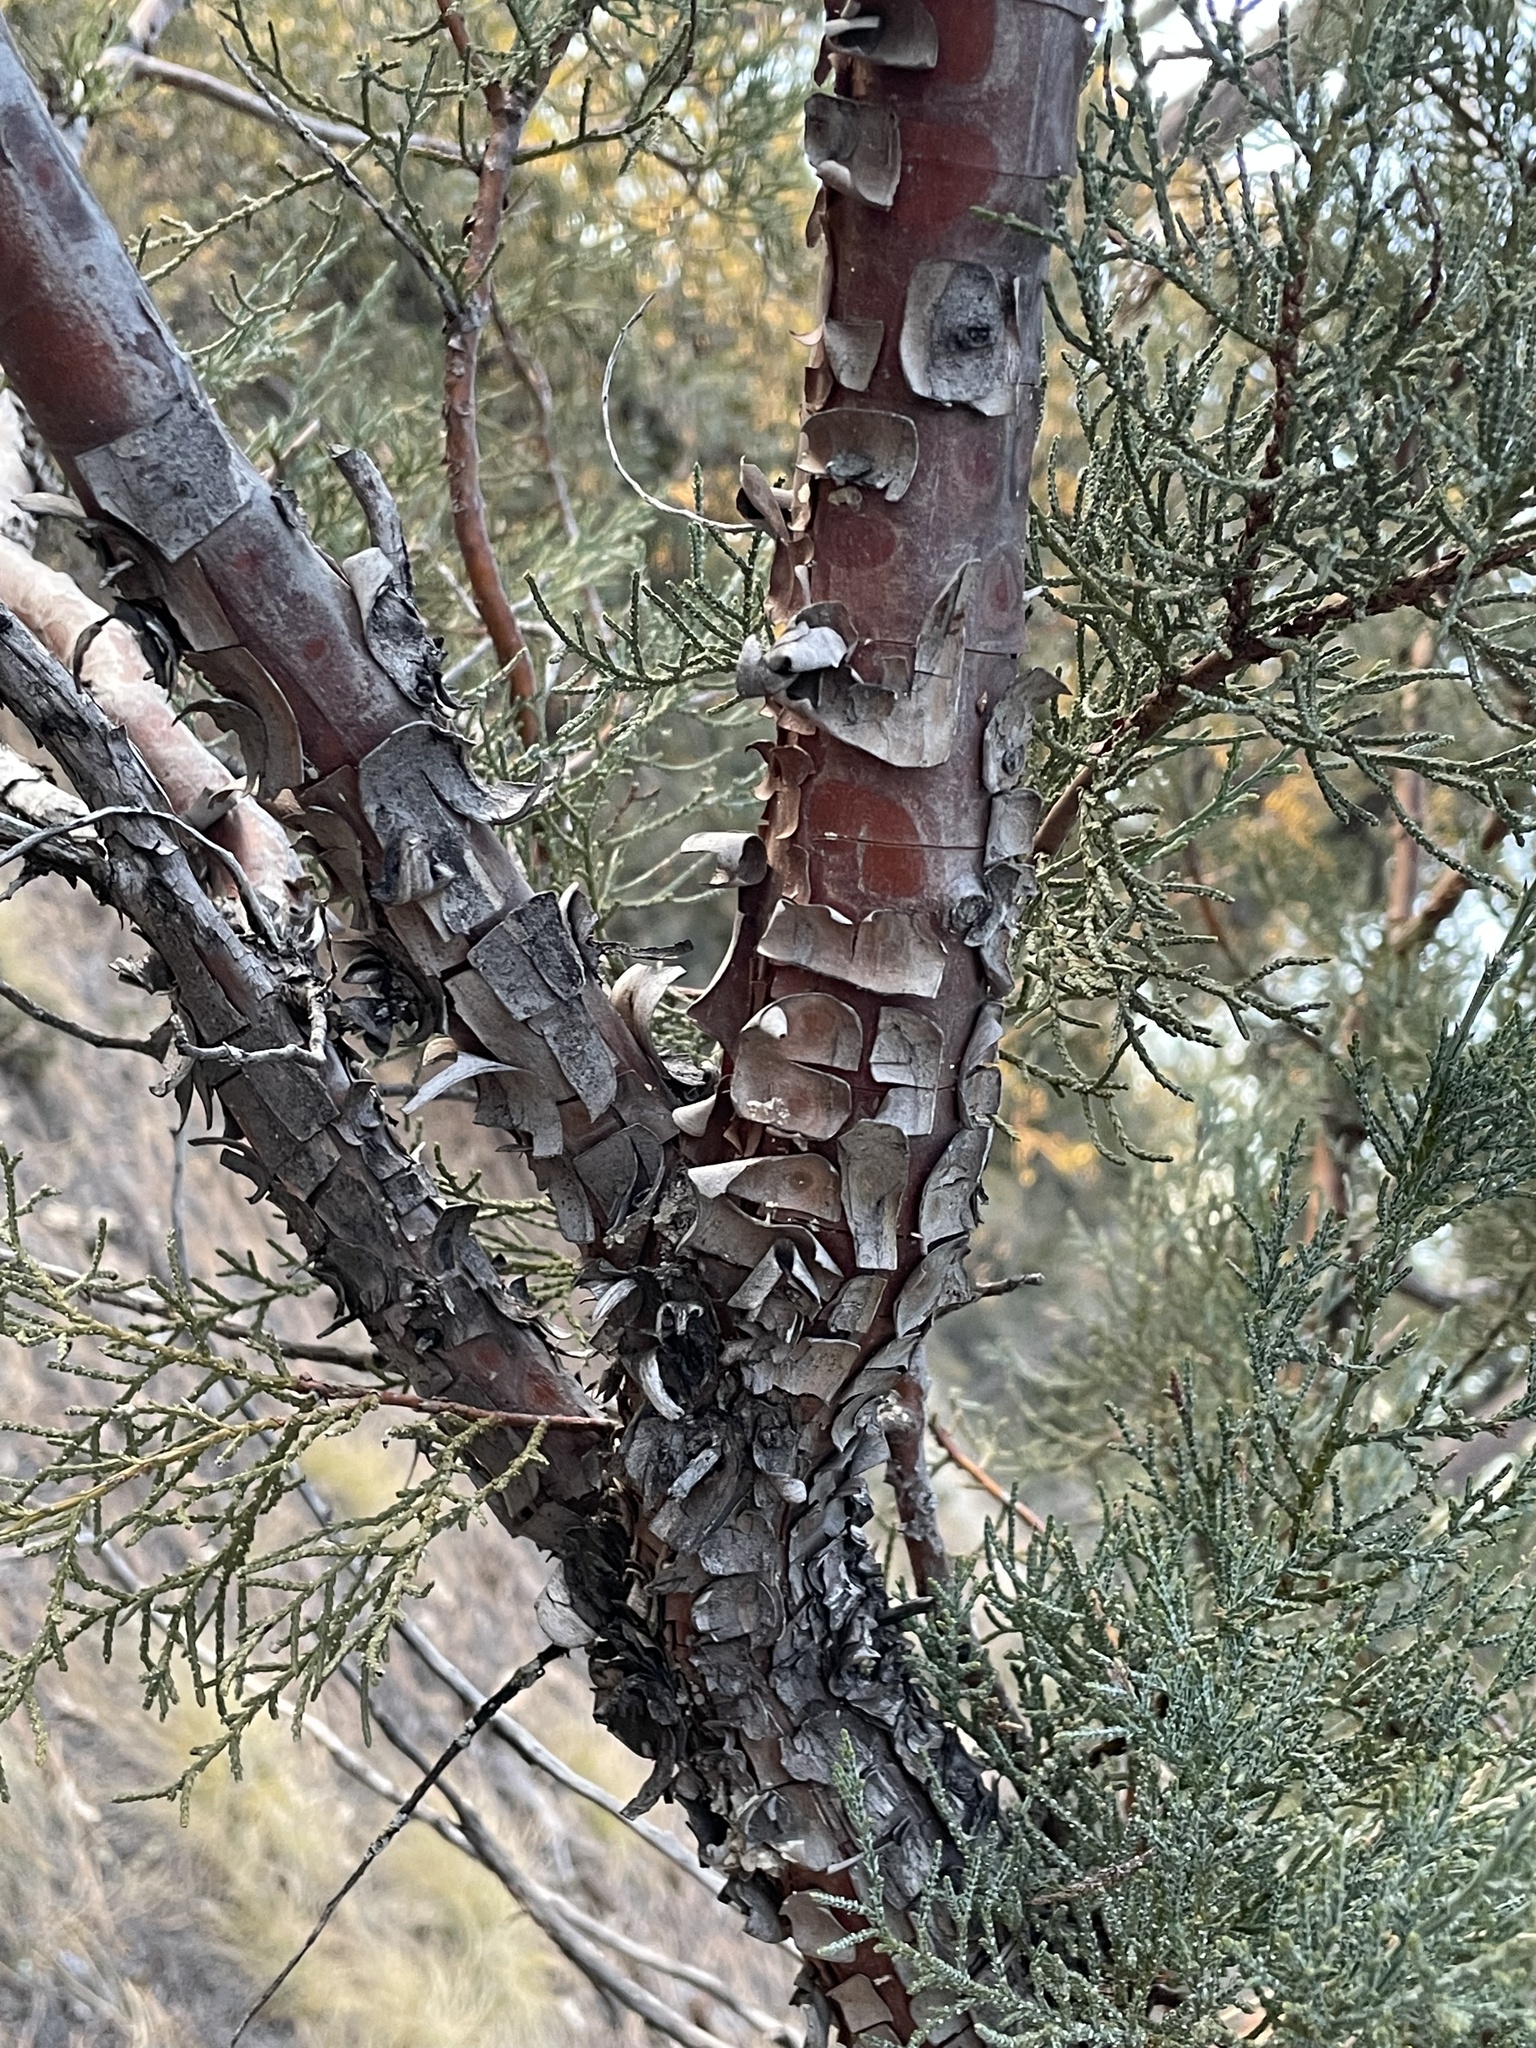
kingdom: Plantae
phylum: Tracheophyta
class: Pinopsida
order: Pinales
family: Cupressaceae
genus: Juniperus
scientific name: Juniperus deppeana
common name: Alligator juniper
